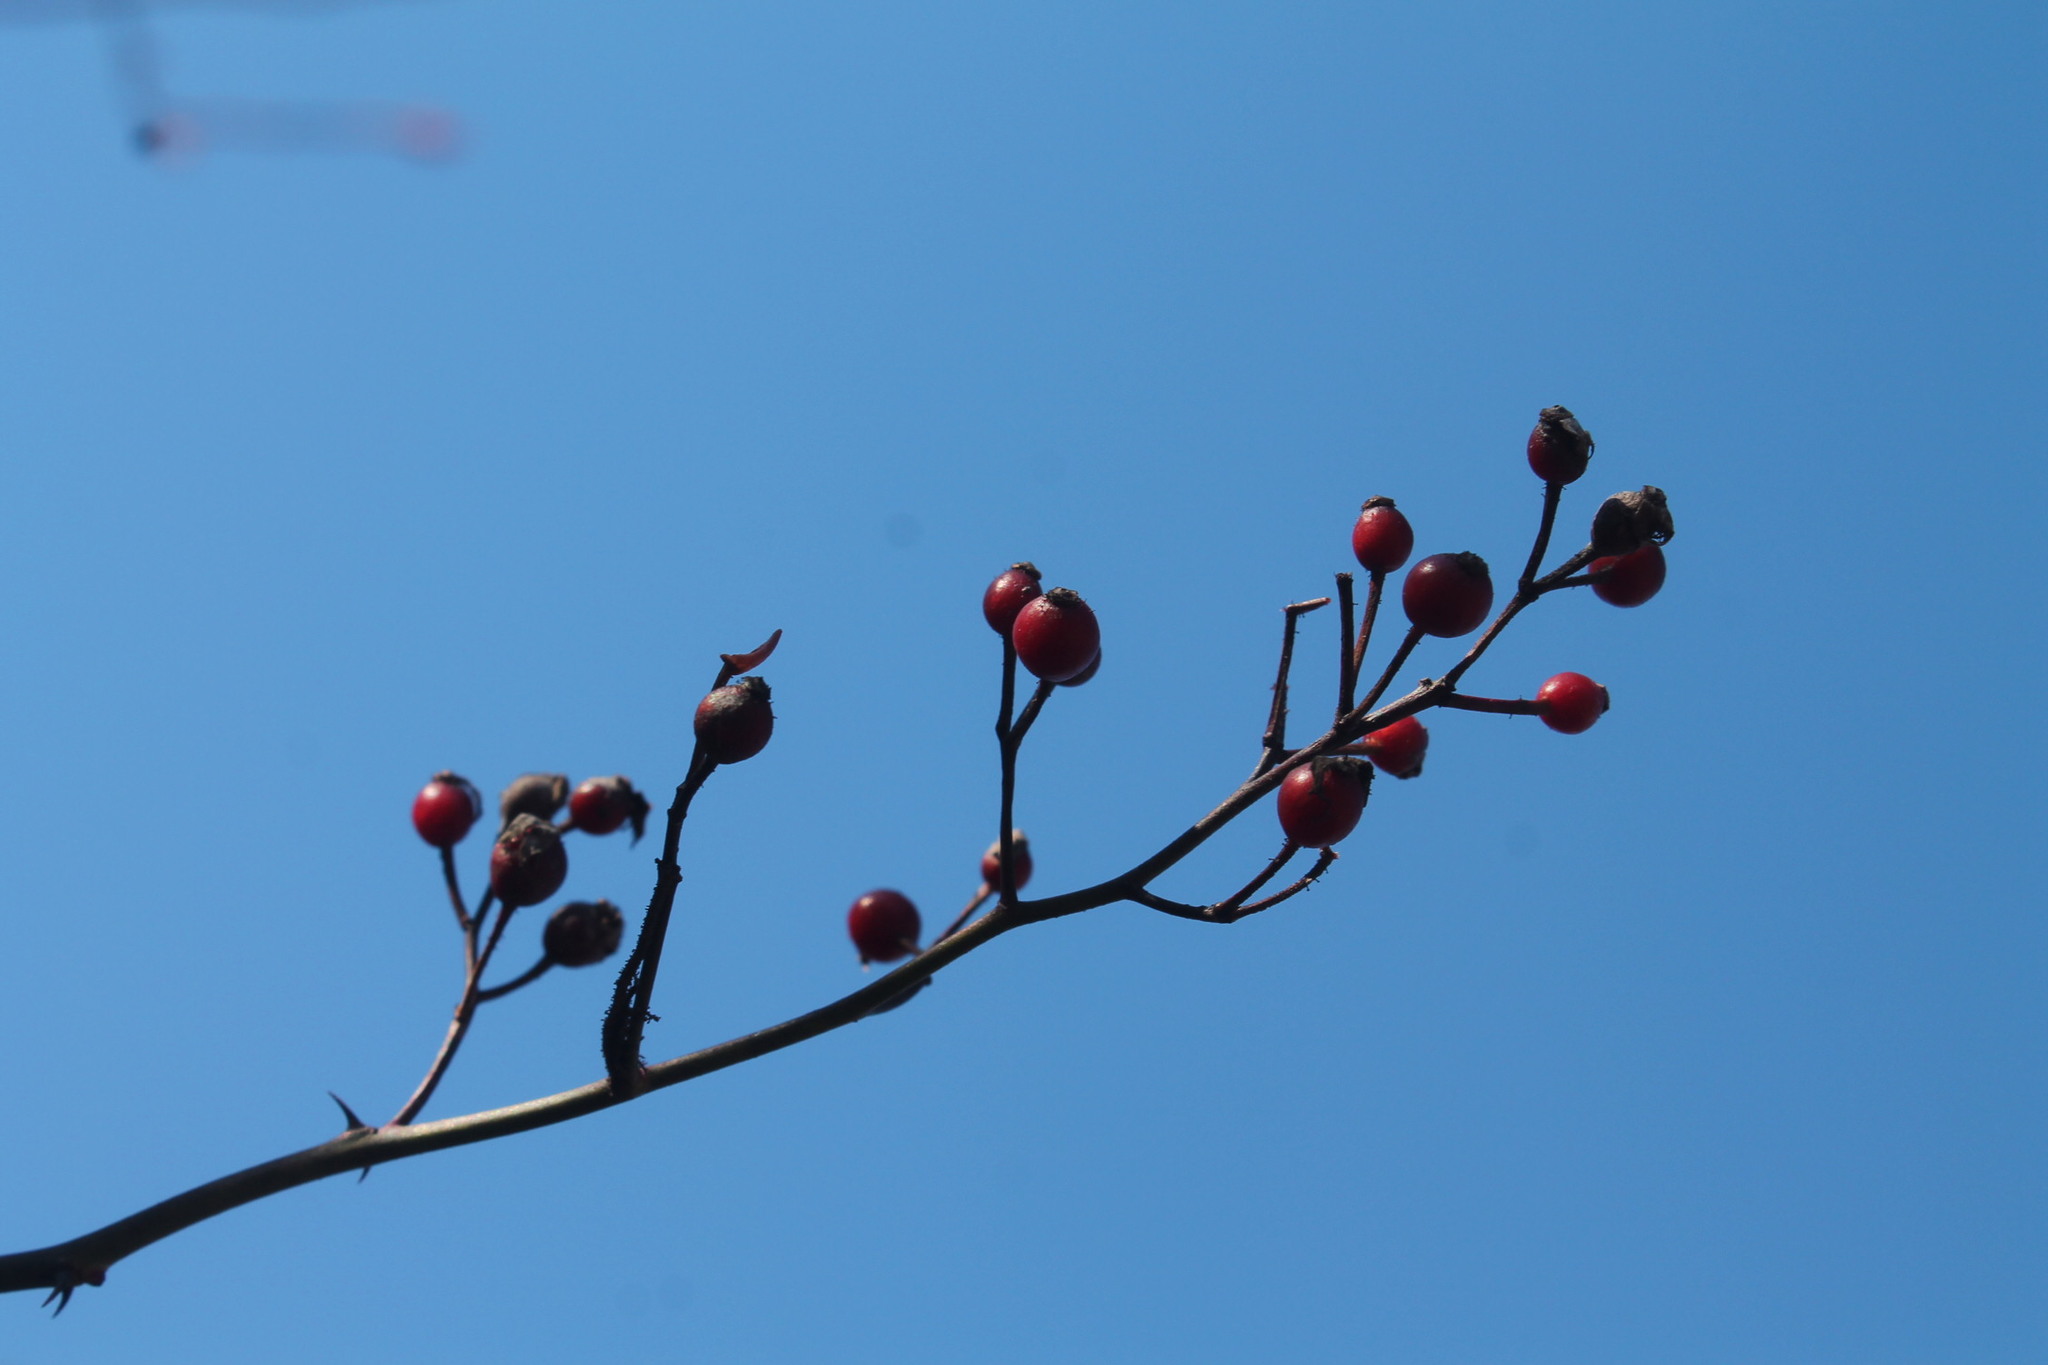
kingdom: Plantae
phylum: Tracheophyta
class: Magnoliopsida
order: Rosales
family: Rosaceae
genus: Rosa
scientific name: Rosa multiflora
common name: Multiflora rose
